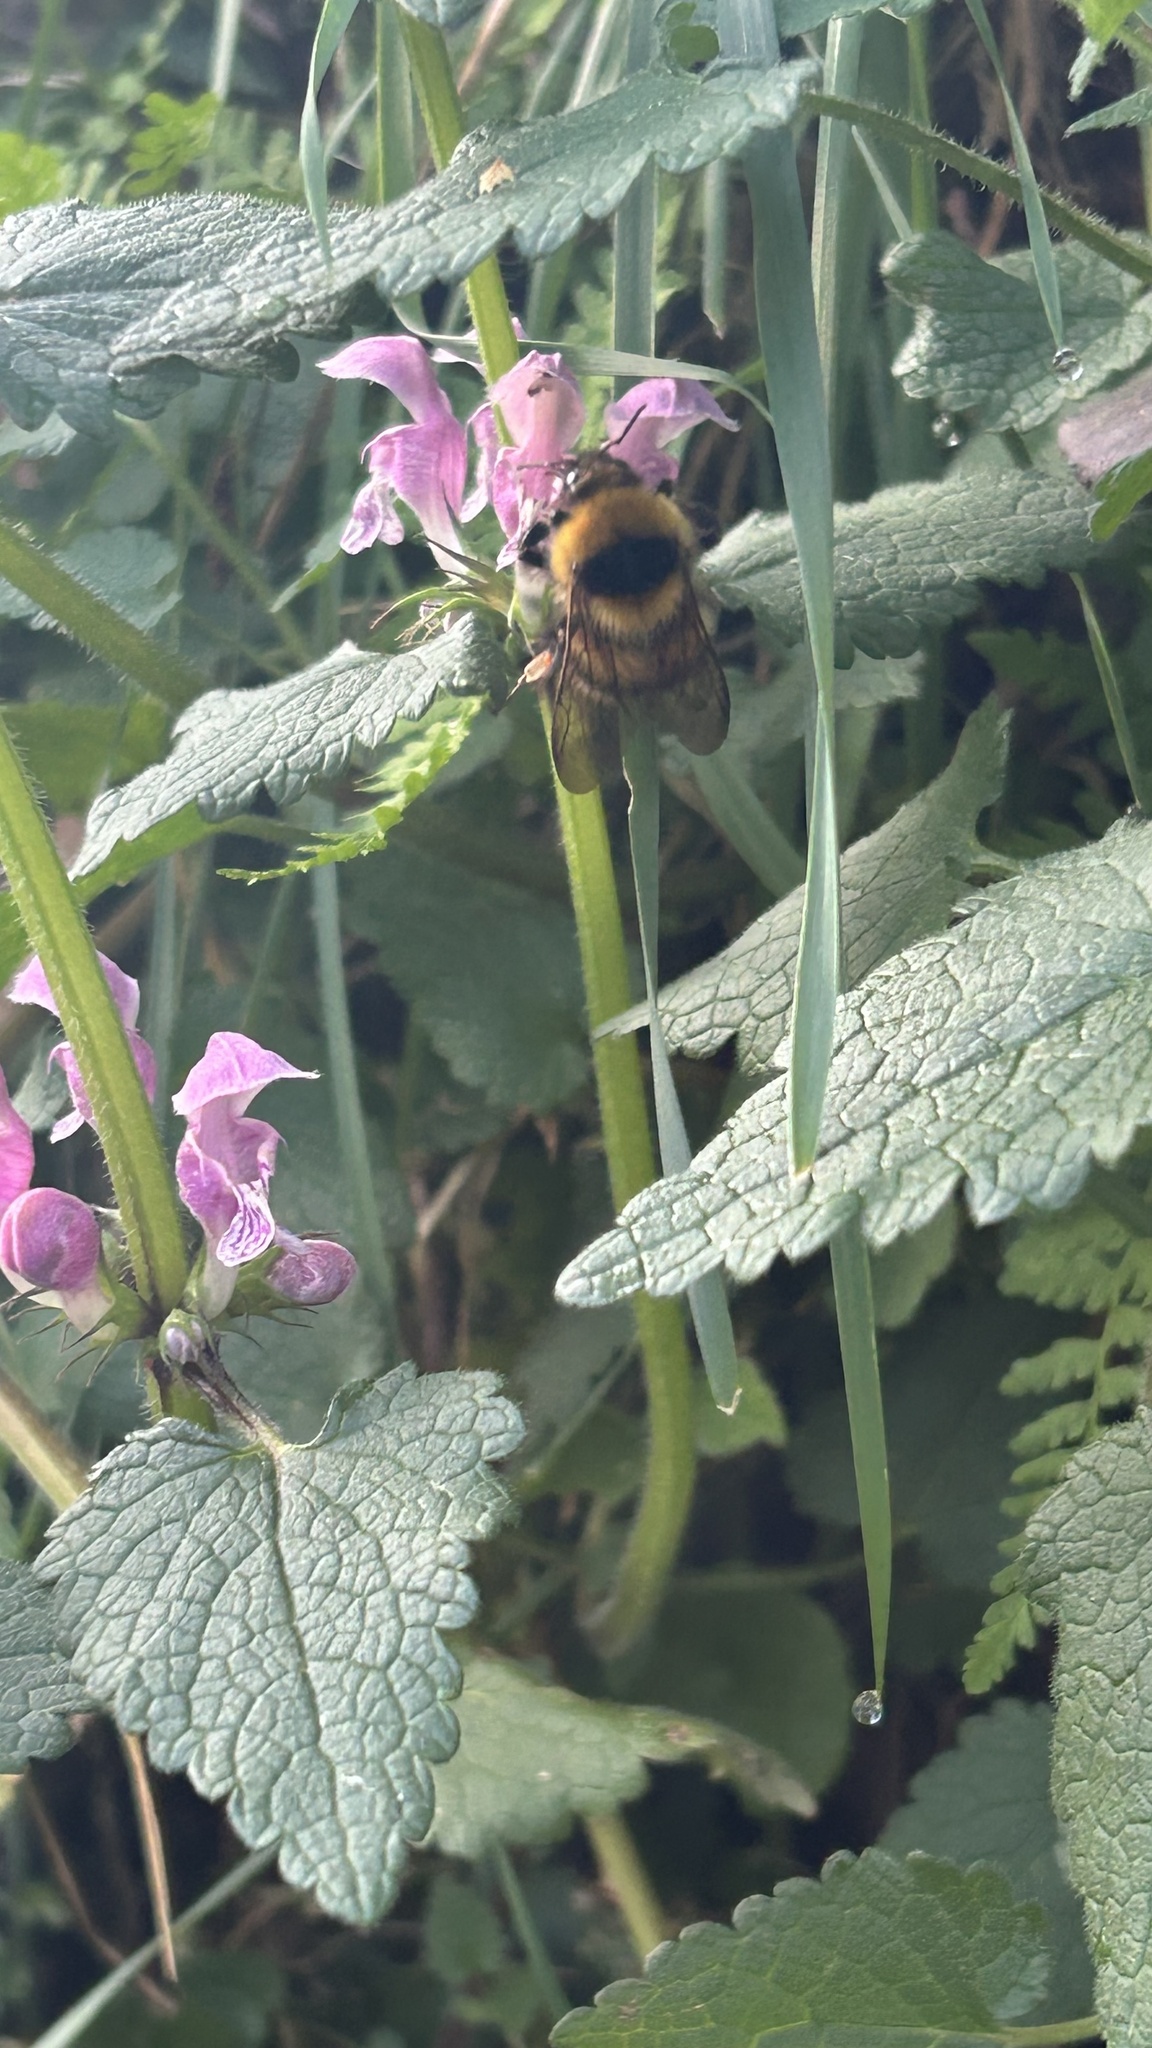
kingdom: Animalia
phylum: Arthropoda
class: Insecta
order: Hymenoptera
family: Apidae
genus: Bombus
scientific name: Bombus hortorum
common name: Garden bumblebee
